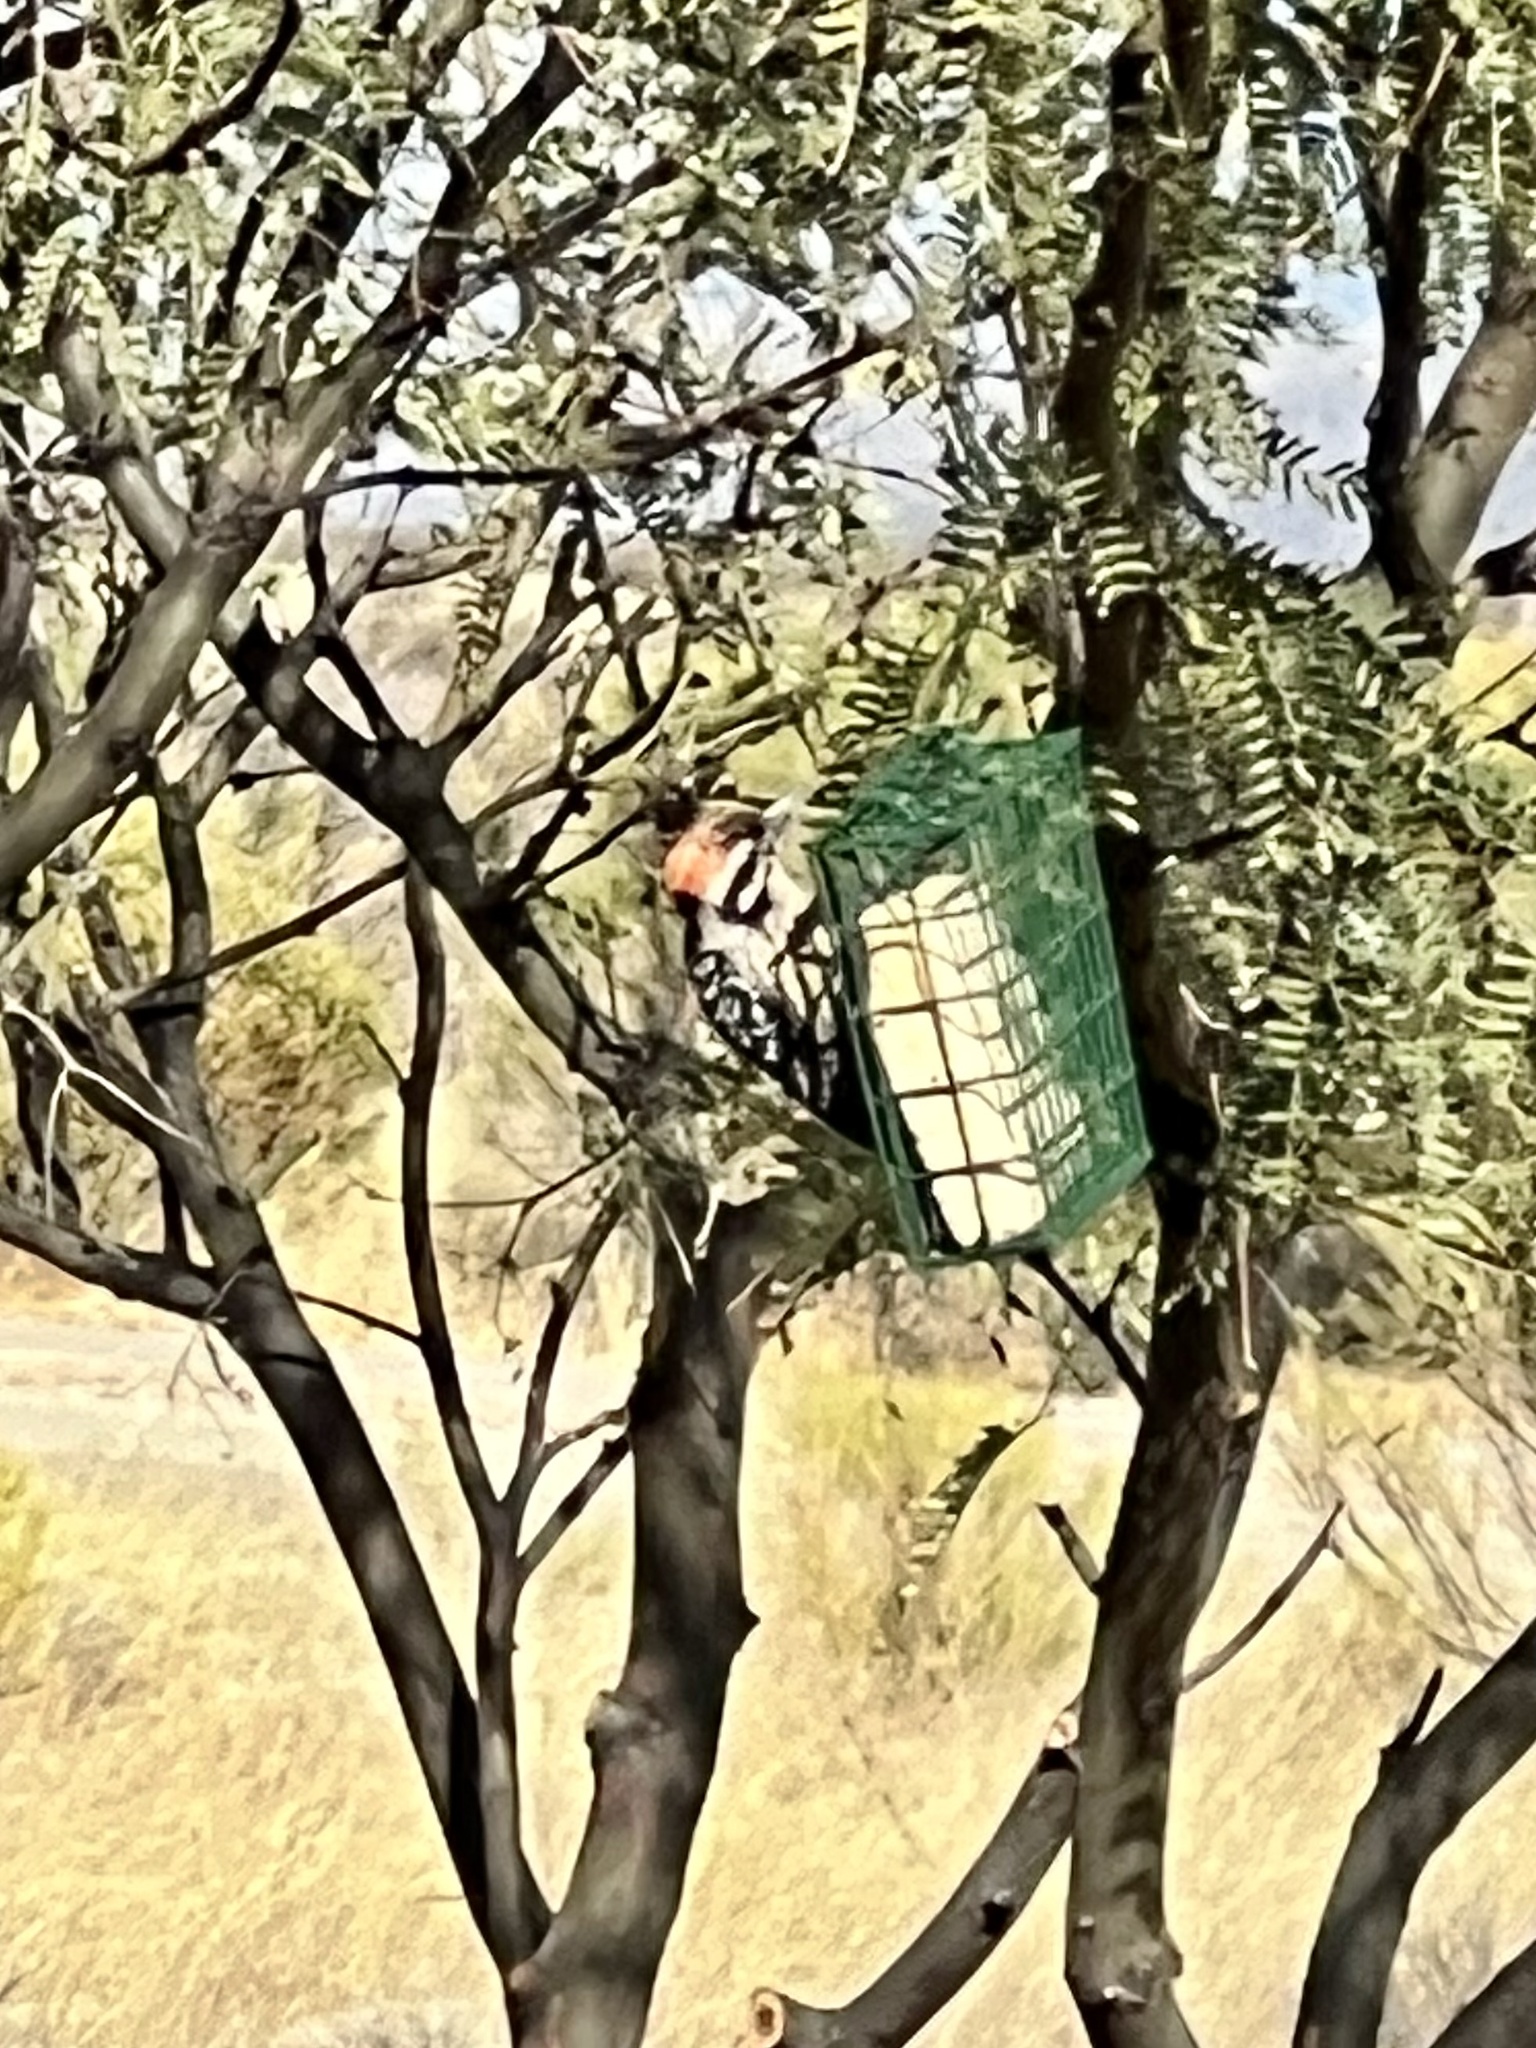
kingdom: Animalia
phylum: Chordata
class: Aves
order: Piciformes
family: Picidae
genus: Dryobates
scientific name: Dryobates scalaris
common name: Ladder-backed woodpecker
